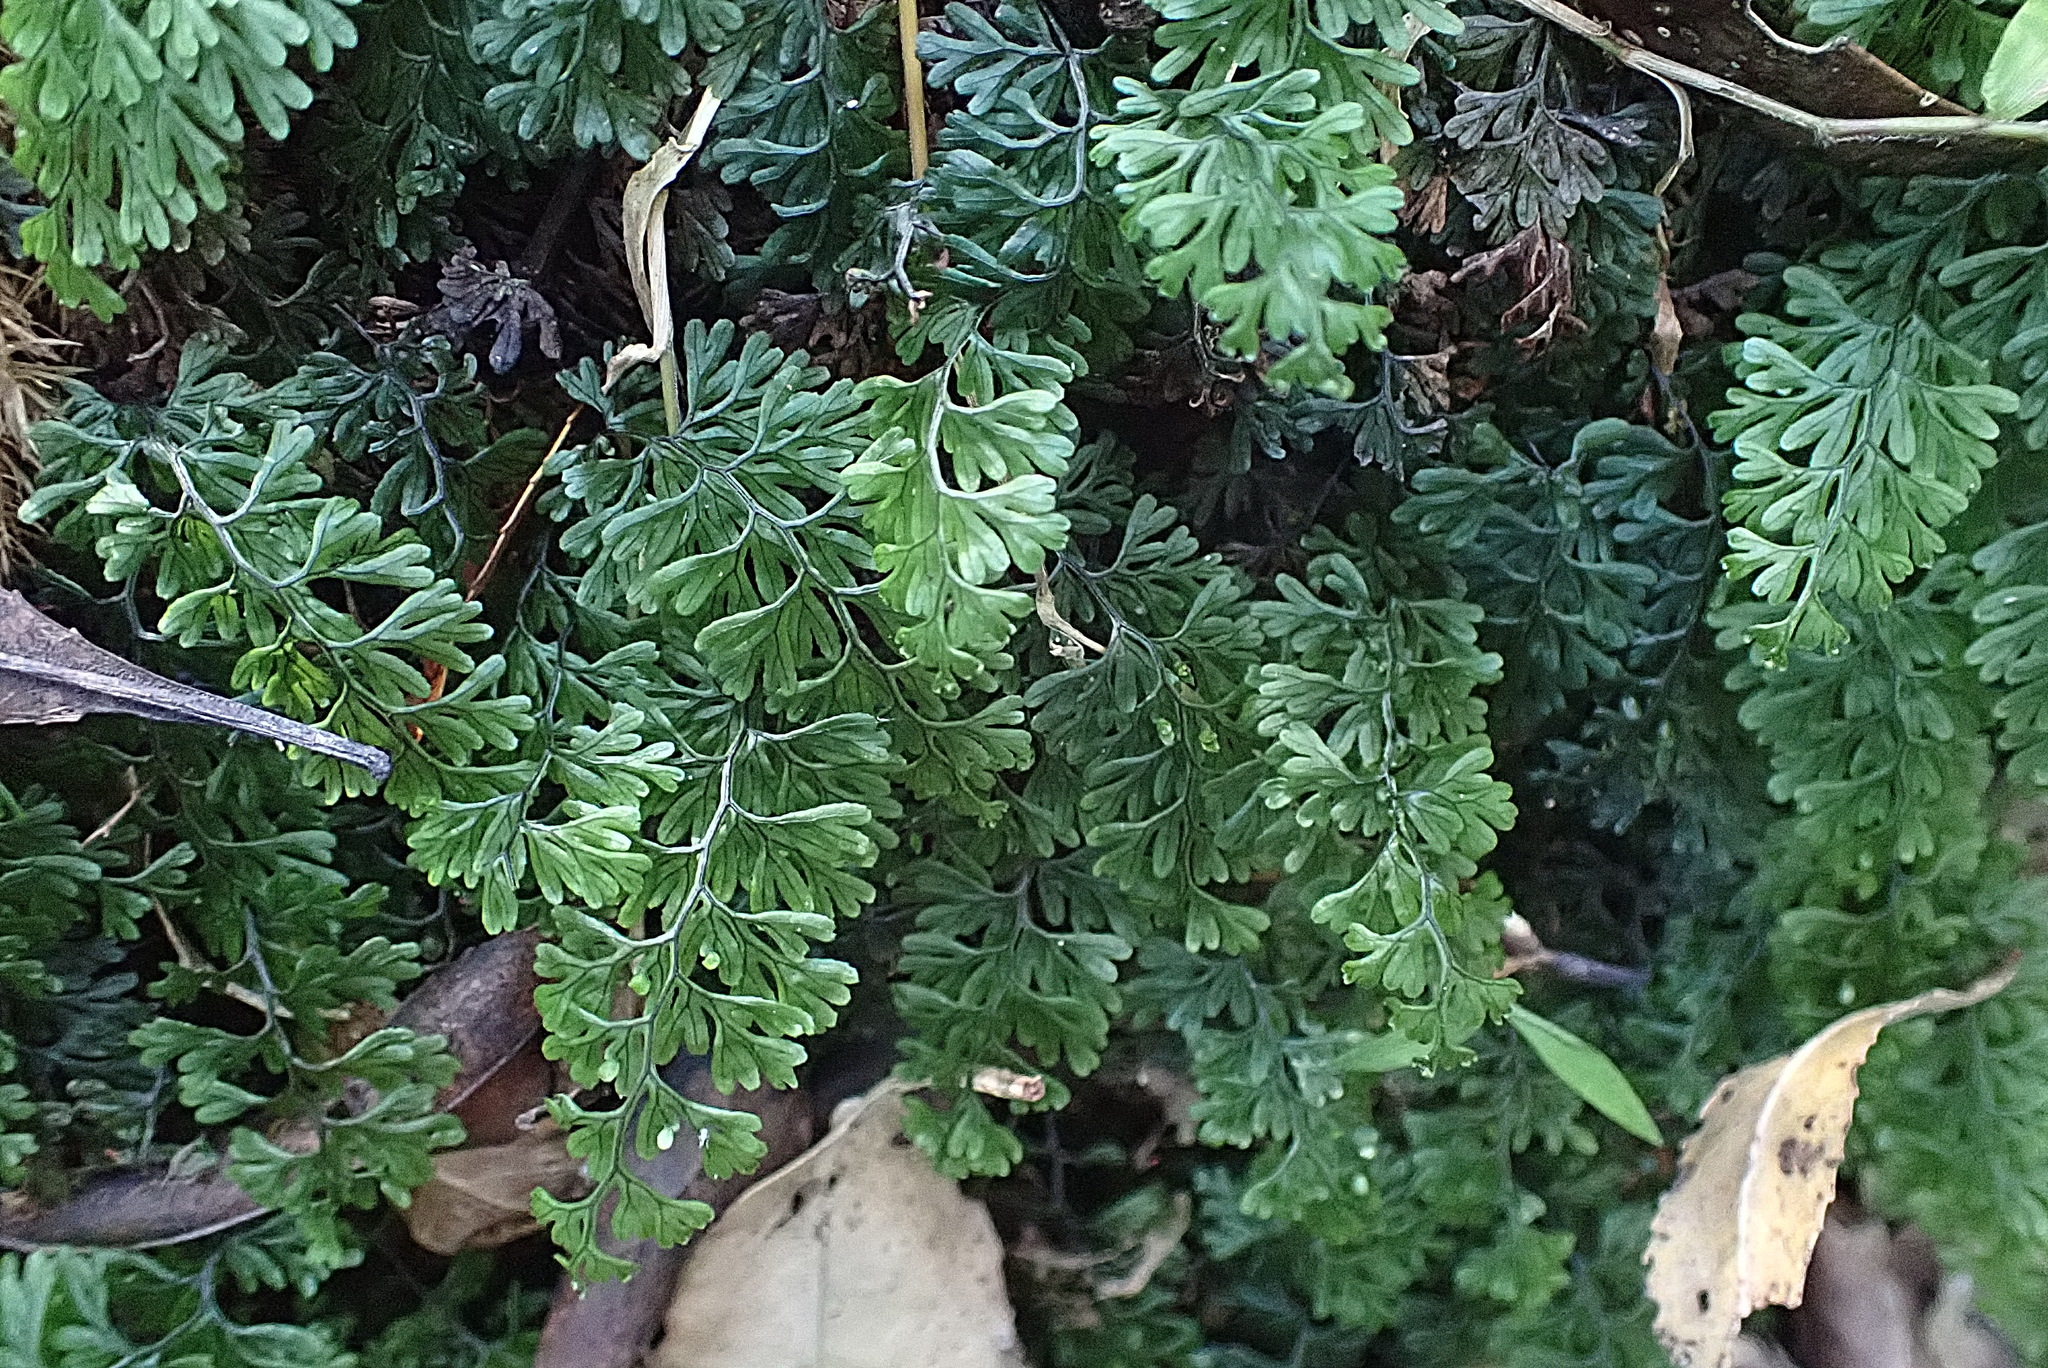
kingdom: Plantae
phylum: Tracheophyta
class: Polypodiopsida
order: Hymenophyllales
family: Hymenophyllaceae
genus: Hymenophyllum
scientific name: Hymenophyllum tunbrigense
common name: Tunbridge filmy fern
